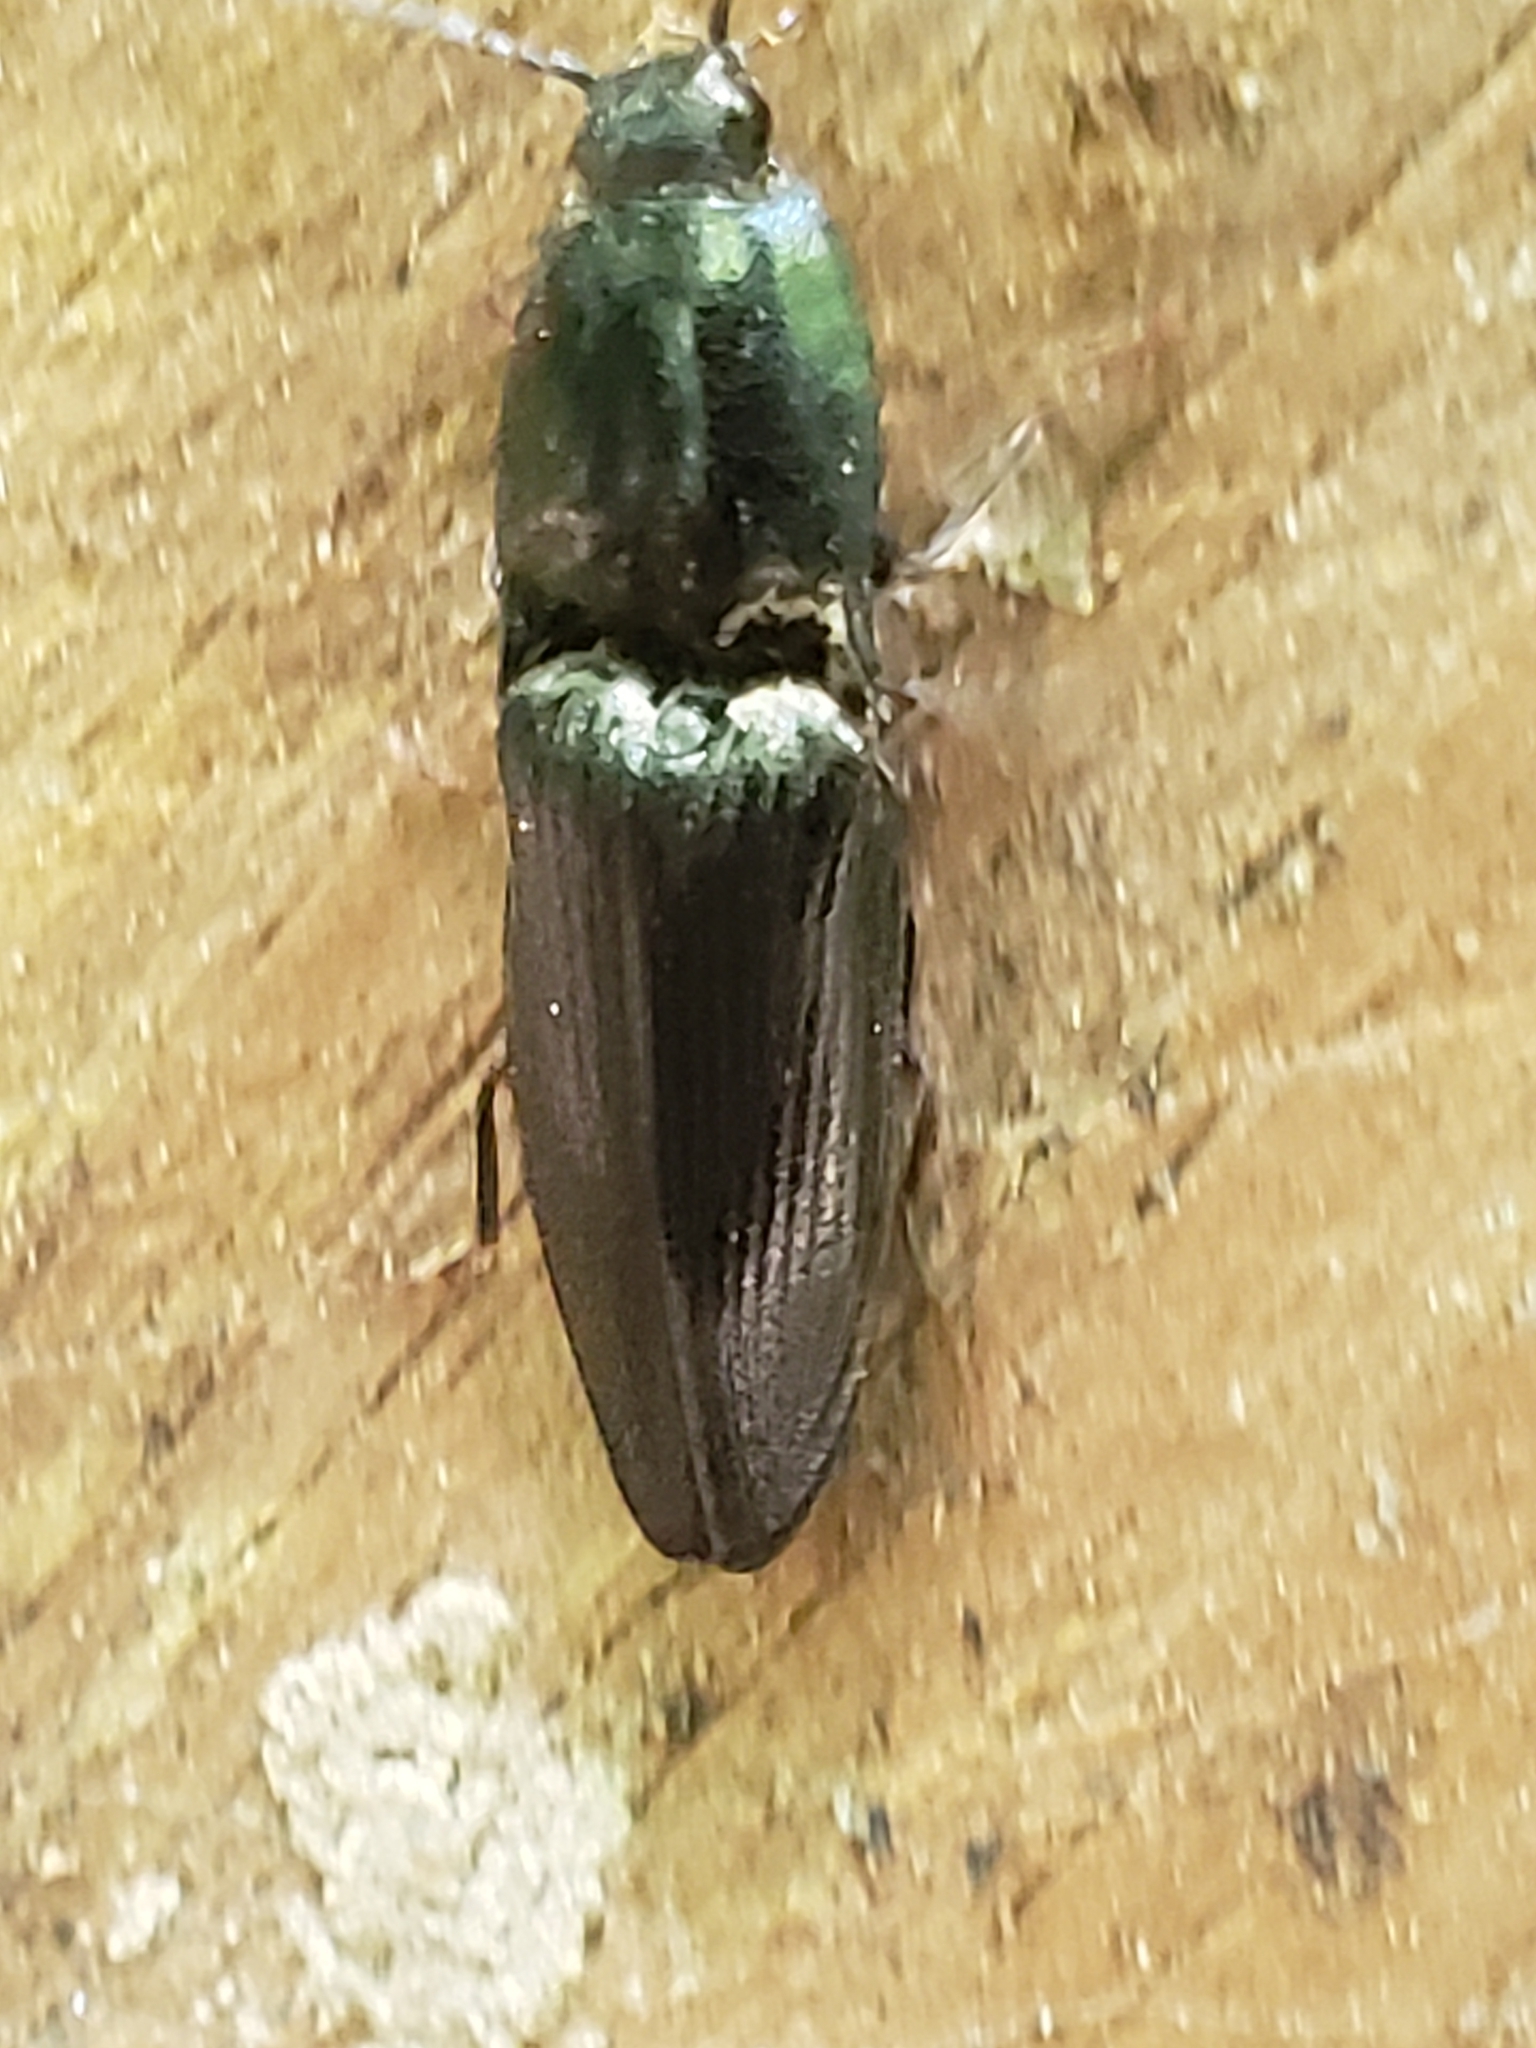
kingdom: Animalia
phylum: Arthropoda
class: Insecta
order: Coleoptera
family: Elateridae
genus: Neopristilophus
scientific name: Neopristilophus
